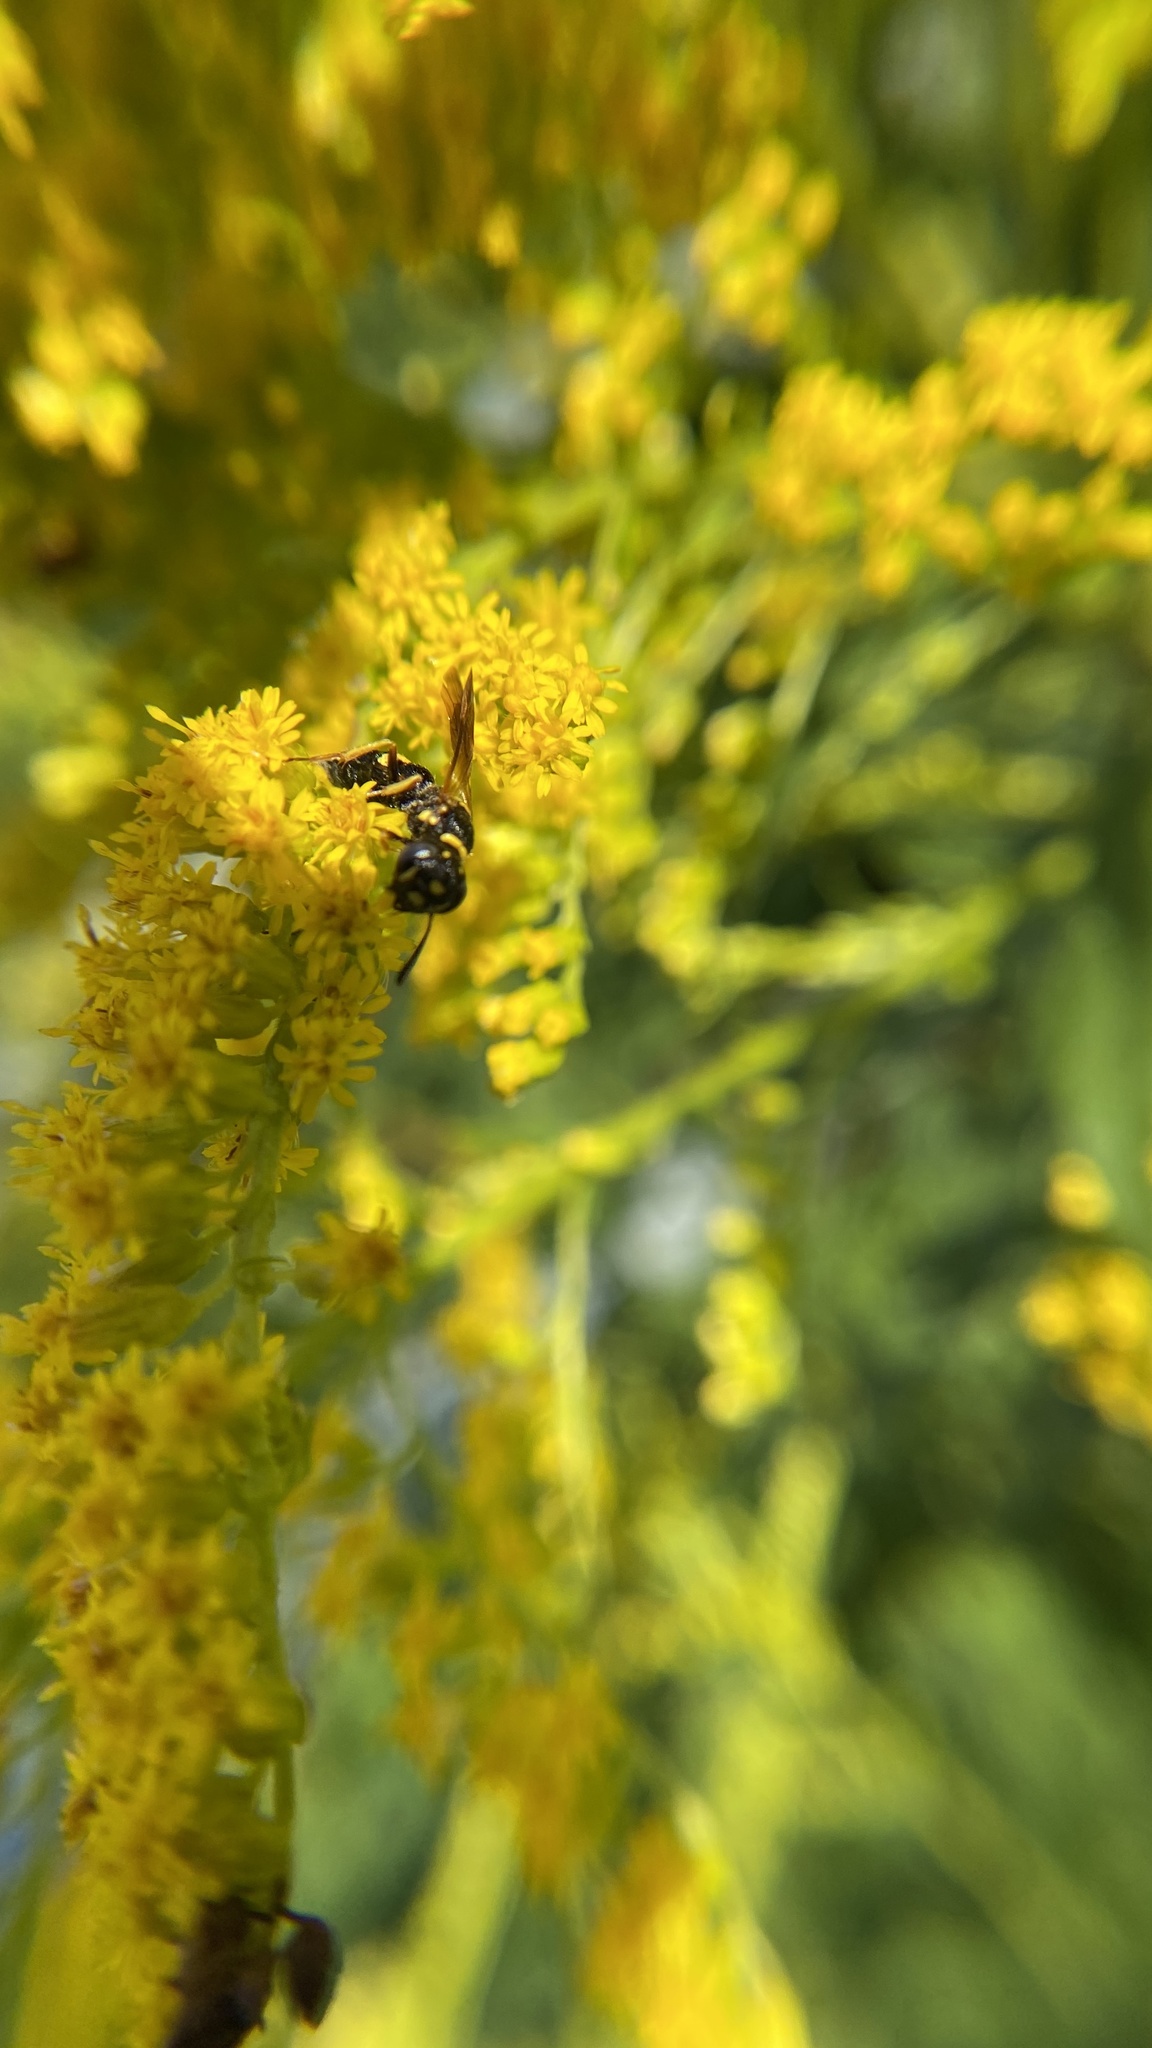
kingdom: Animalia
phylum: Arthropoda
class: Insecta
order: Hymenoptera
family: Crabronidae
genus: Philanthus
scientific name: Philanthus gibbosus
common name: Humped beewolf
